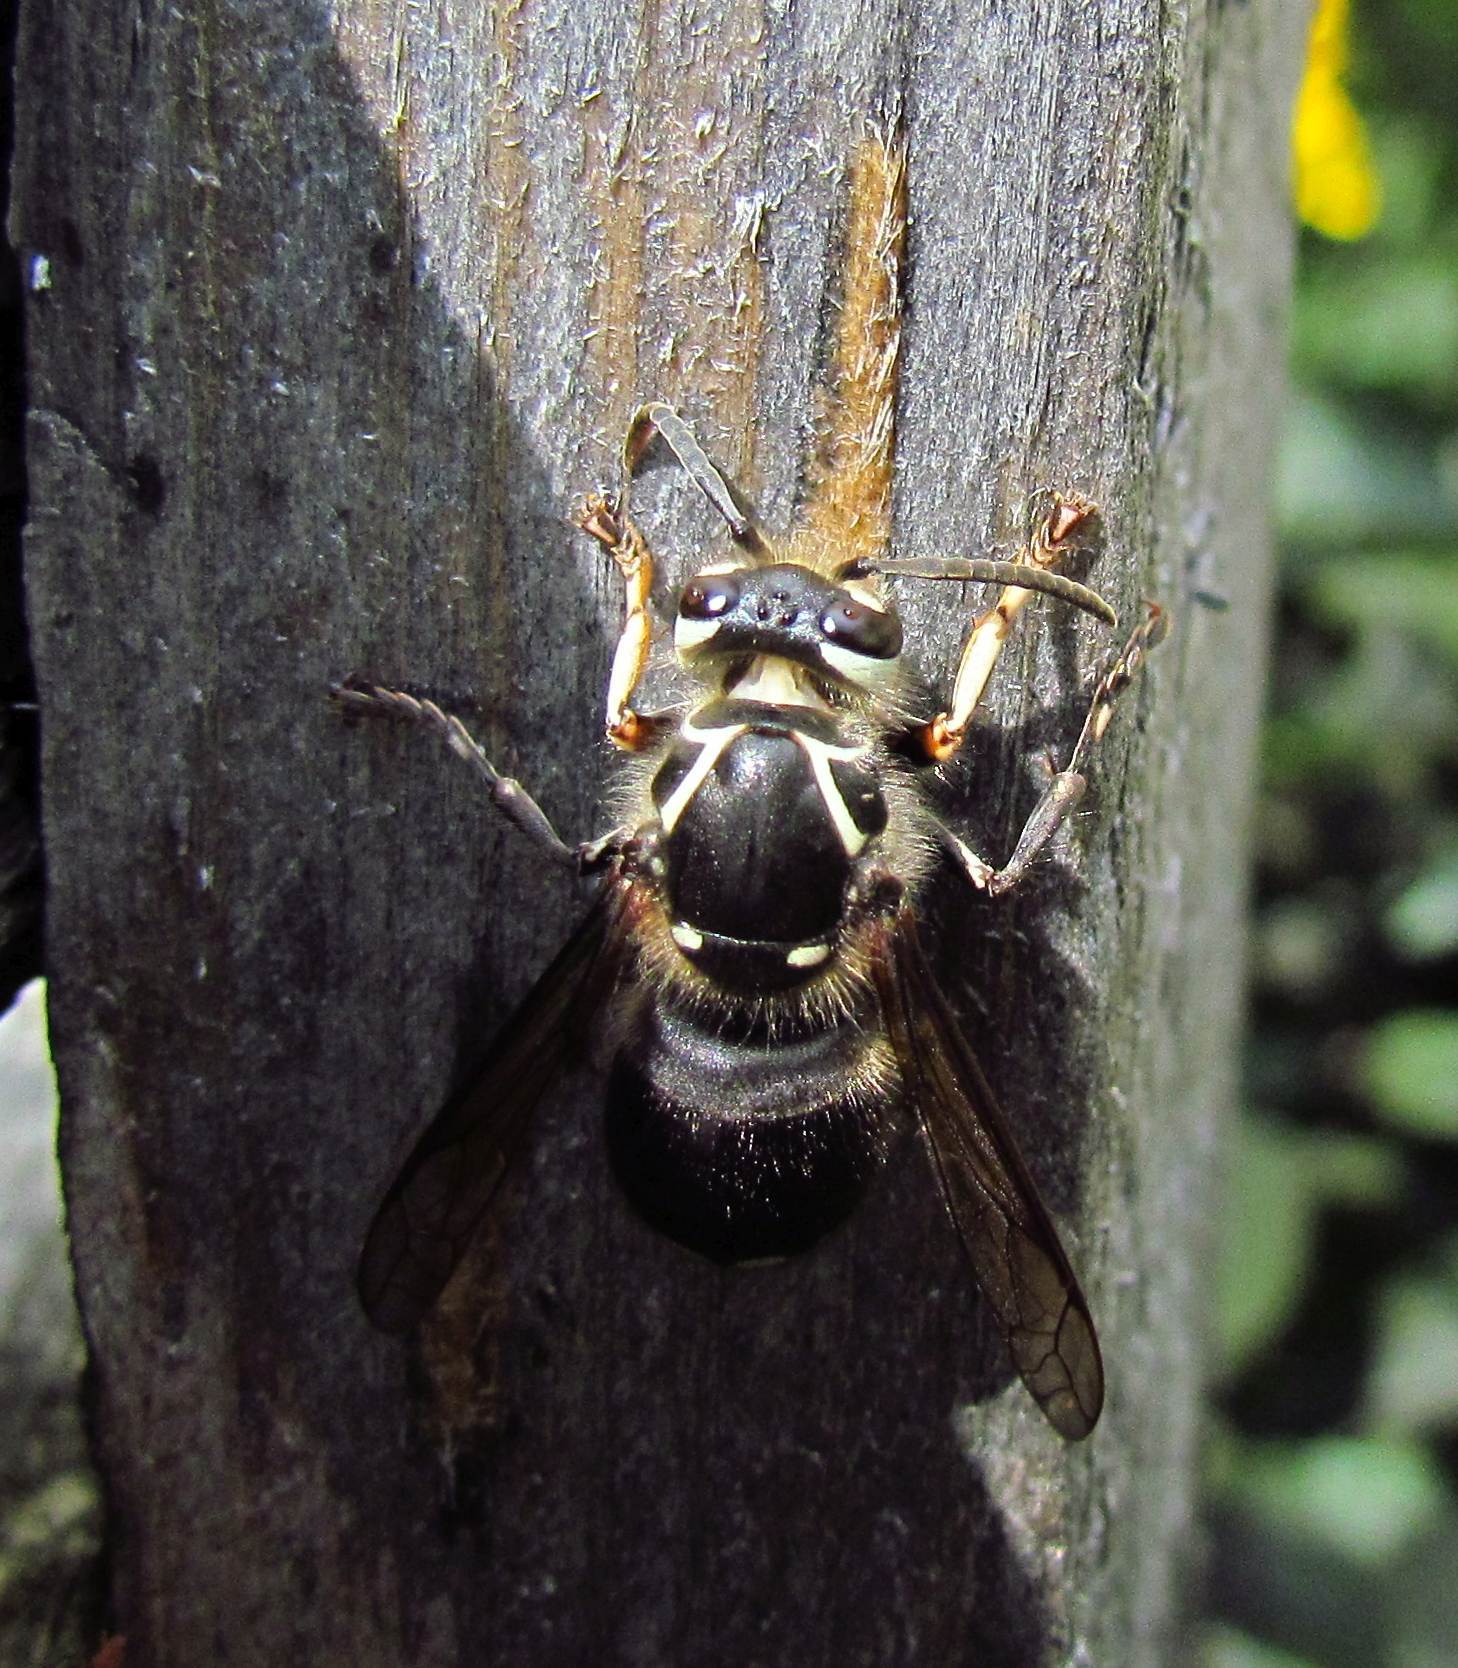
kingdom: Animalia
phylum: Arthropoda
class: Insecta
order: Hymenoptera
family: Vespidae
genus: Dolichovespula
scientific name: Dolichovespula maculata
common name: Bald-faced hornet
